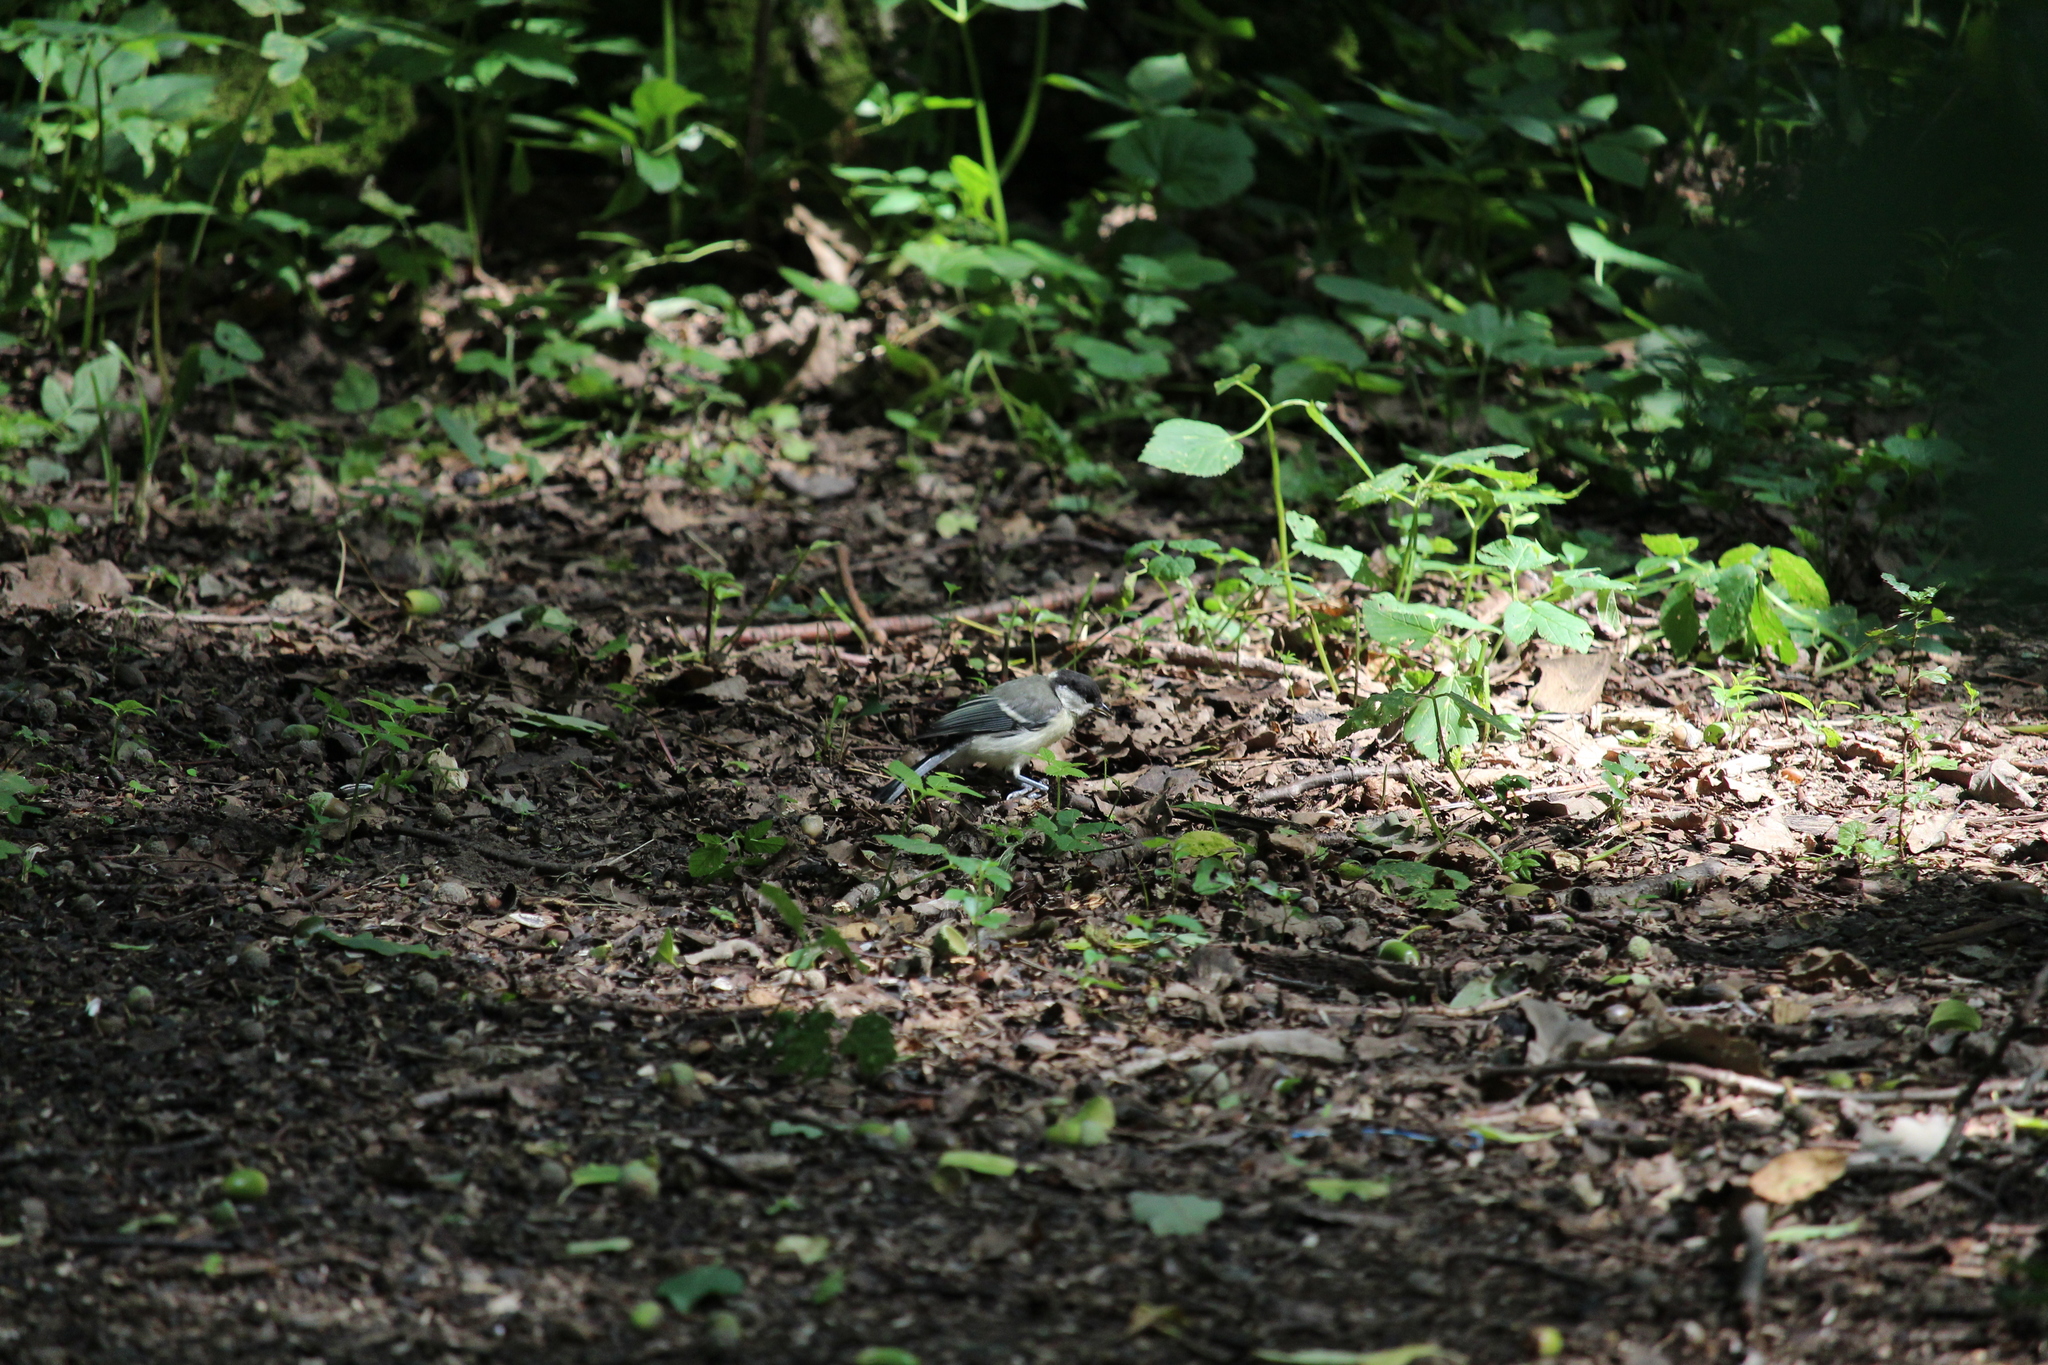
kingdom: Animalia
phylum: Chordata
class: Aves
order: Passeriformes
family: Paridae
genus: Parus
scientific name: Parus major
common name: Great tit
